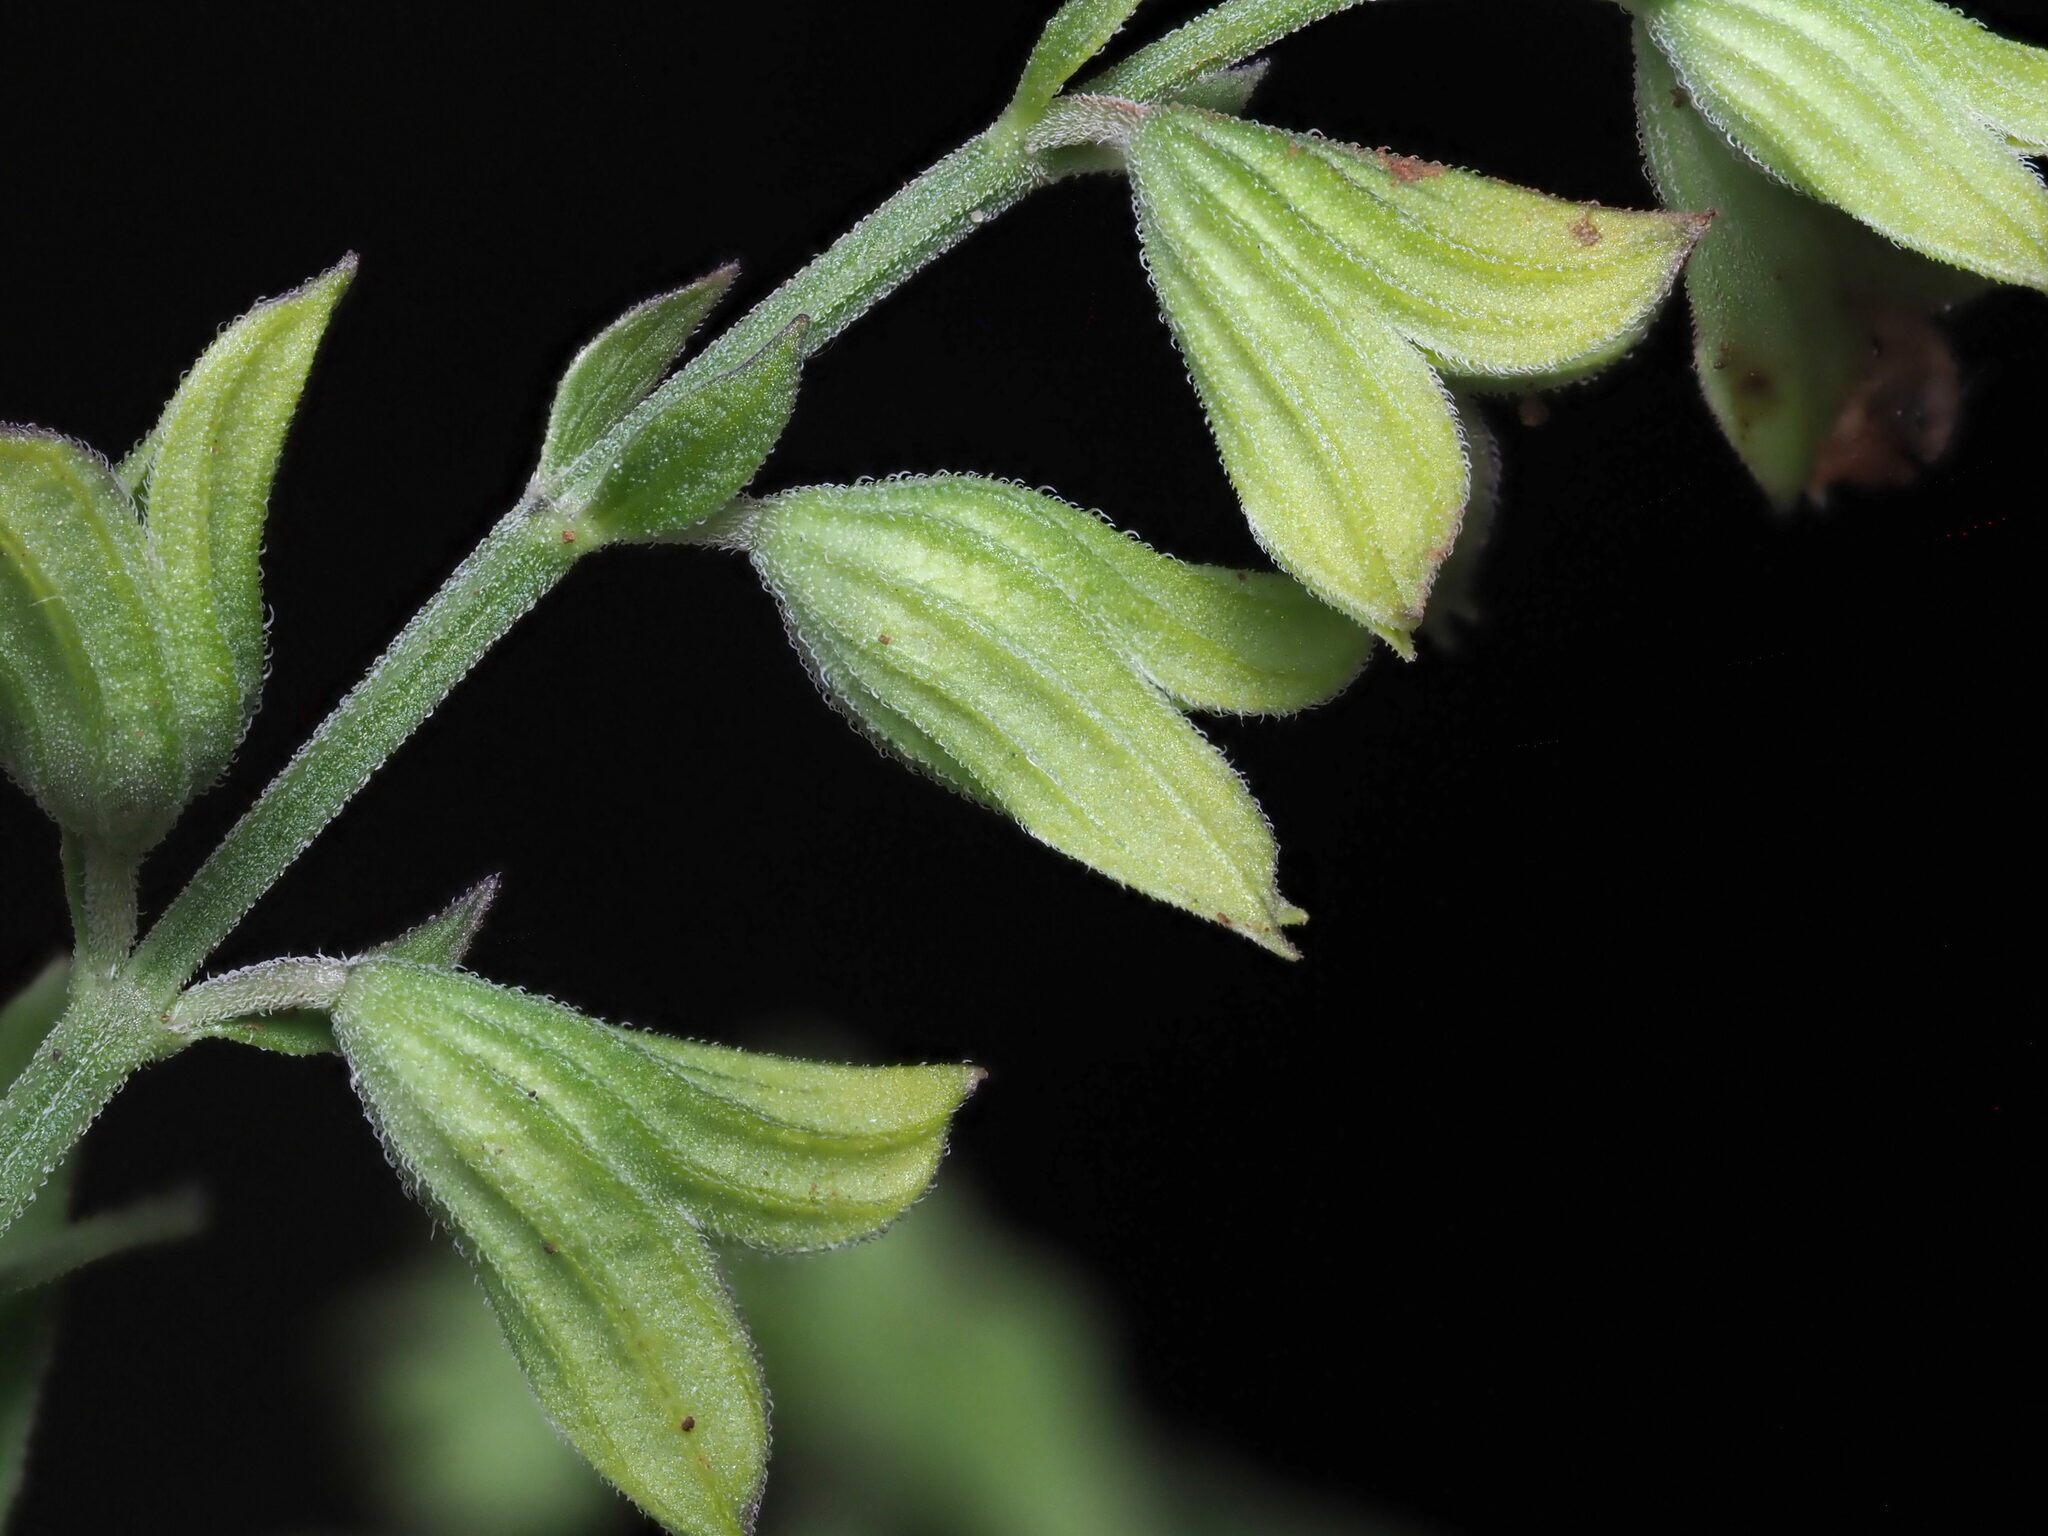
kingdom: Plantae
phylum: Tracheophyta
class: Magnoliopsida
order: Lamiales
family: Lamiaceae
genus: Salvia
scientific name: Salvia reflexa
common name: Mintweed
